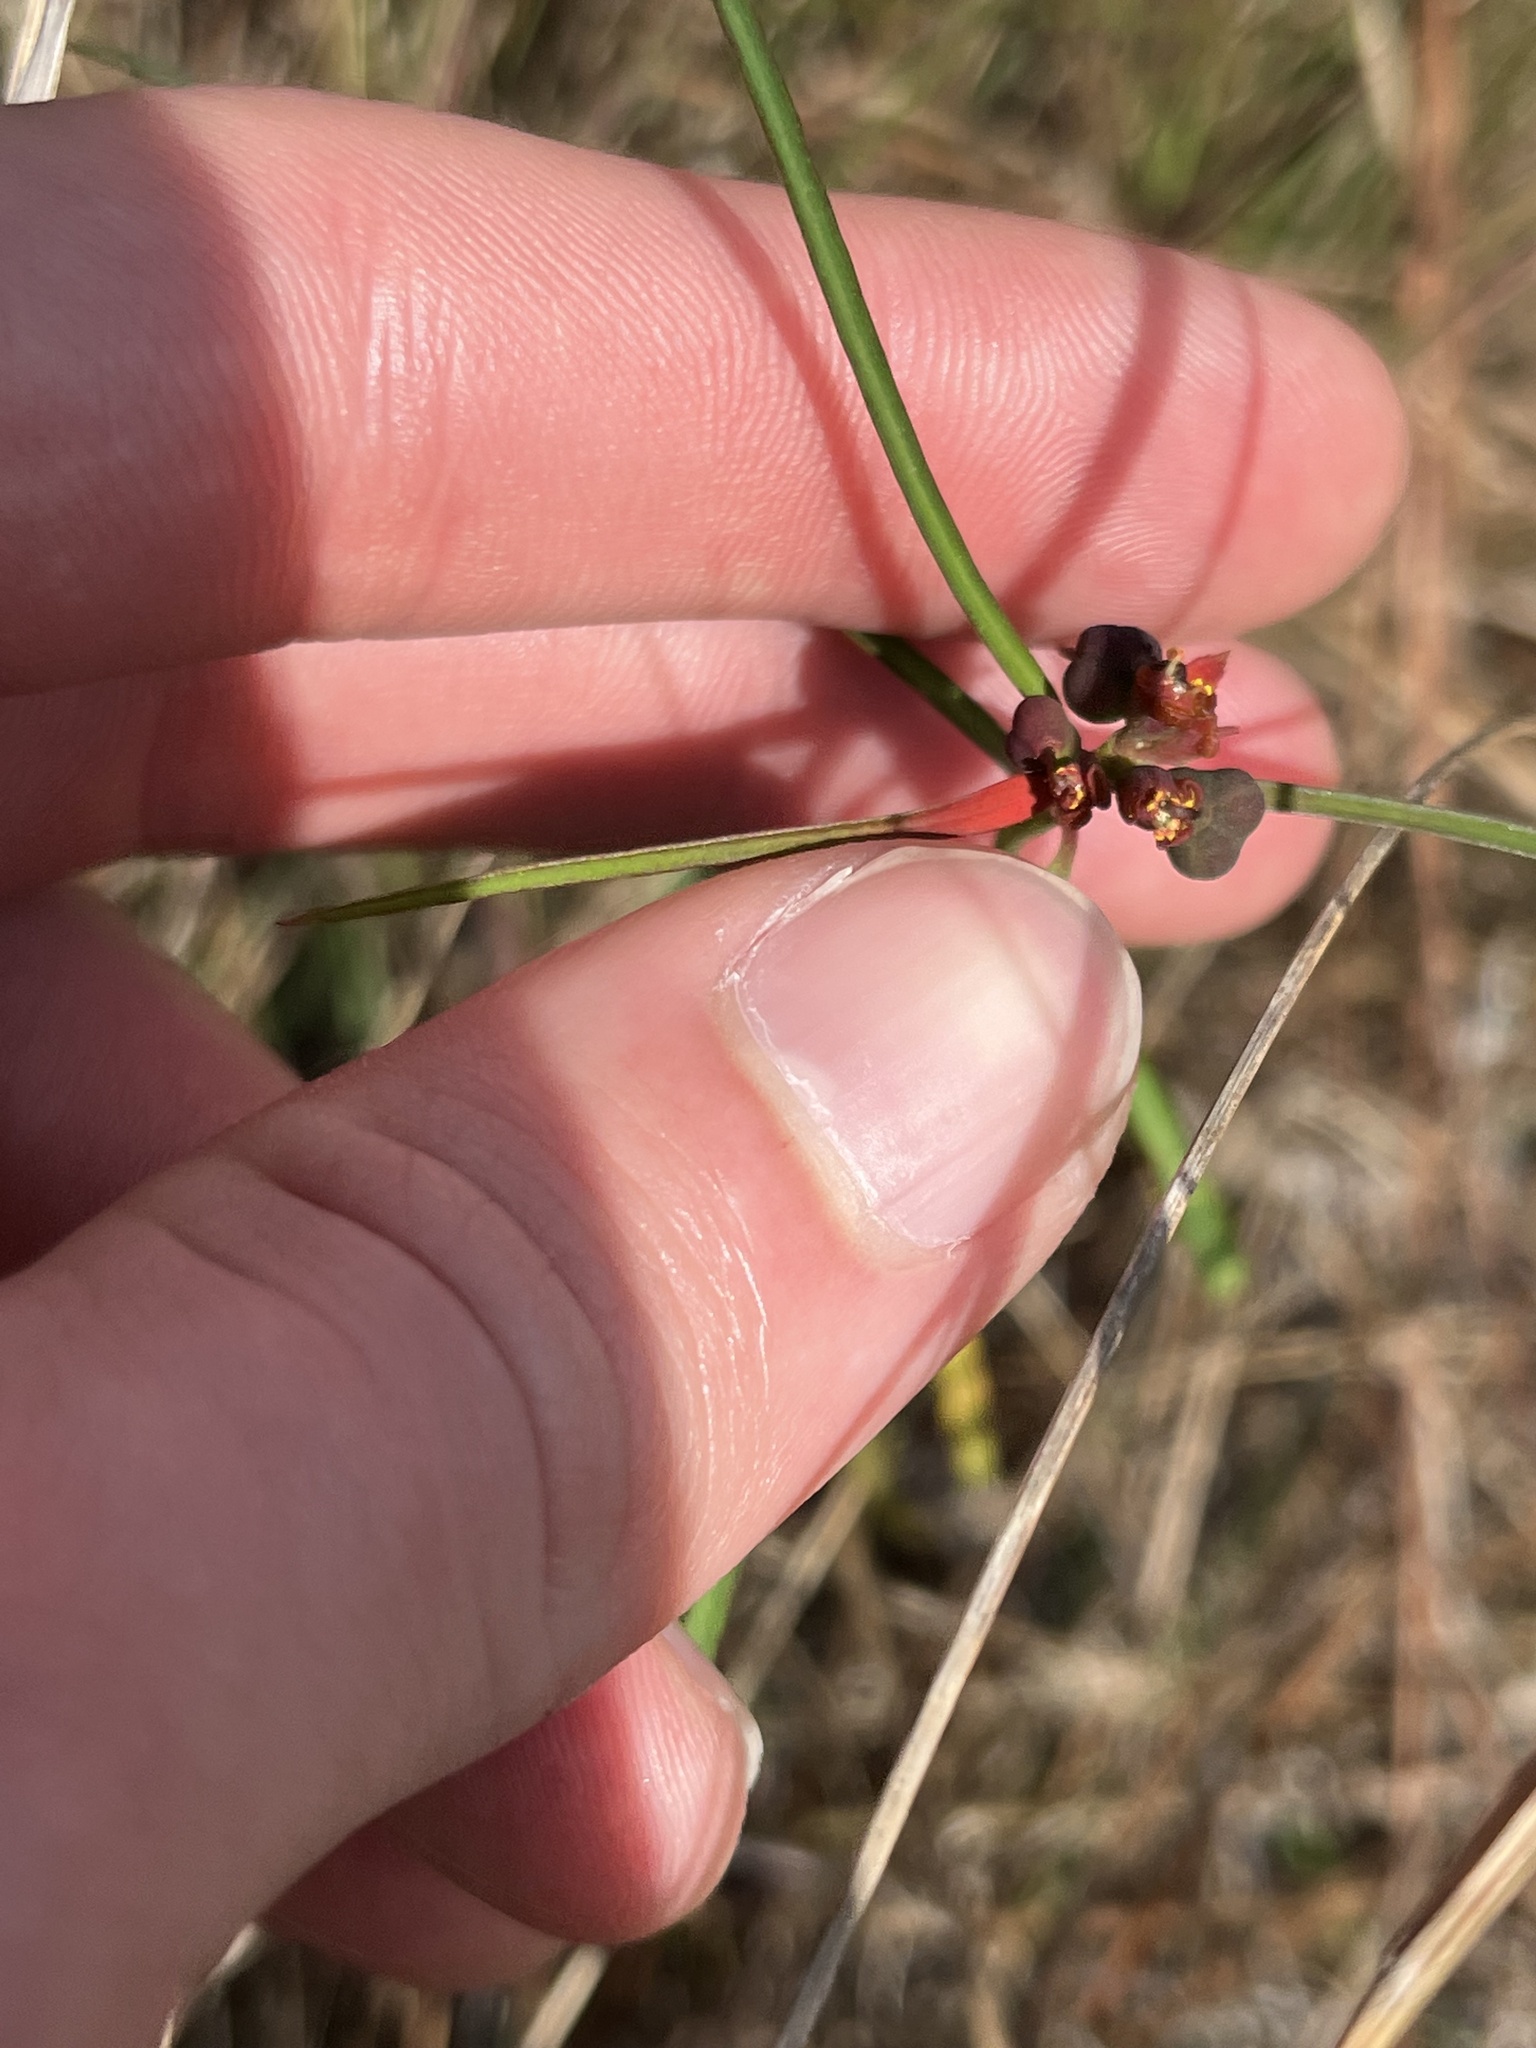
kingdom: Plantae
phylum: Tracheophyta
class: Magnoliopsida
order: Malpighiales
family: Euphorbiaceae
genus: Euphorbia
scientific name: Euphorbia pinetorum
